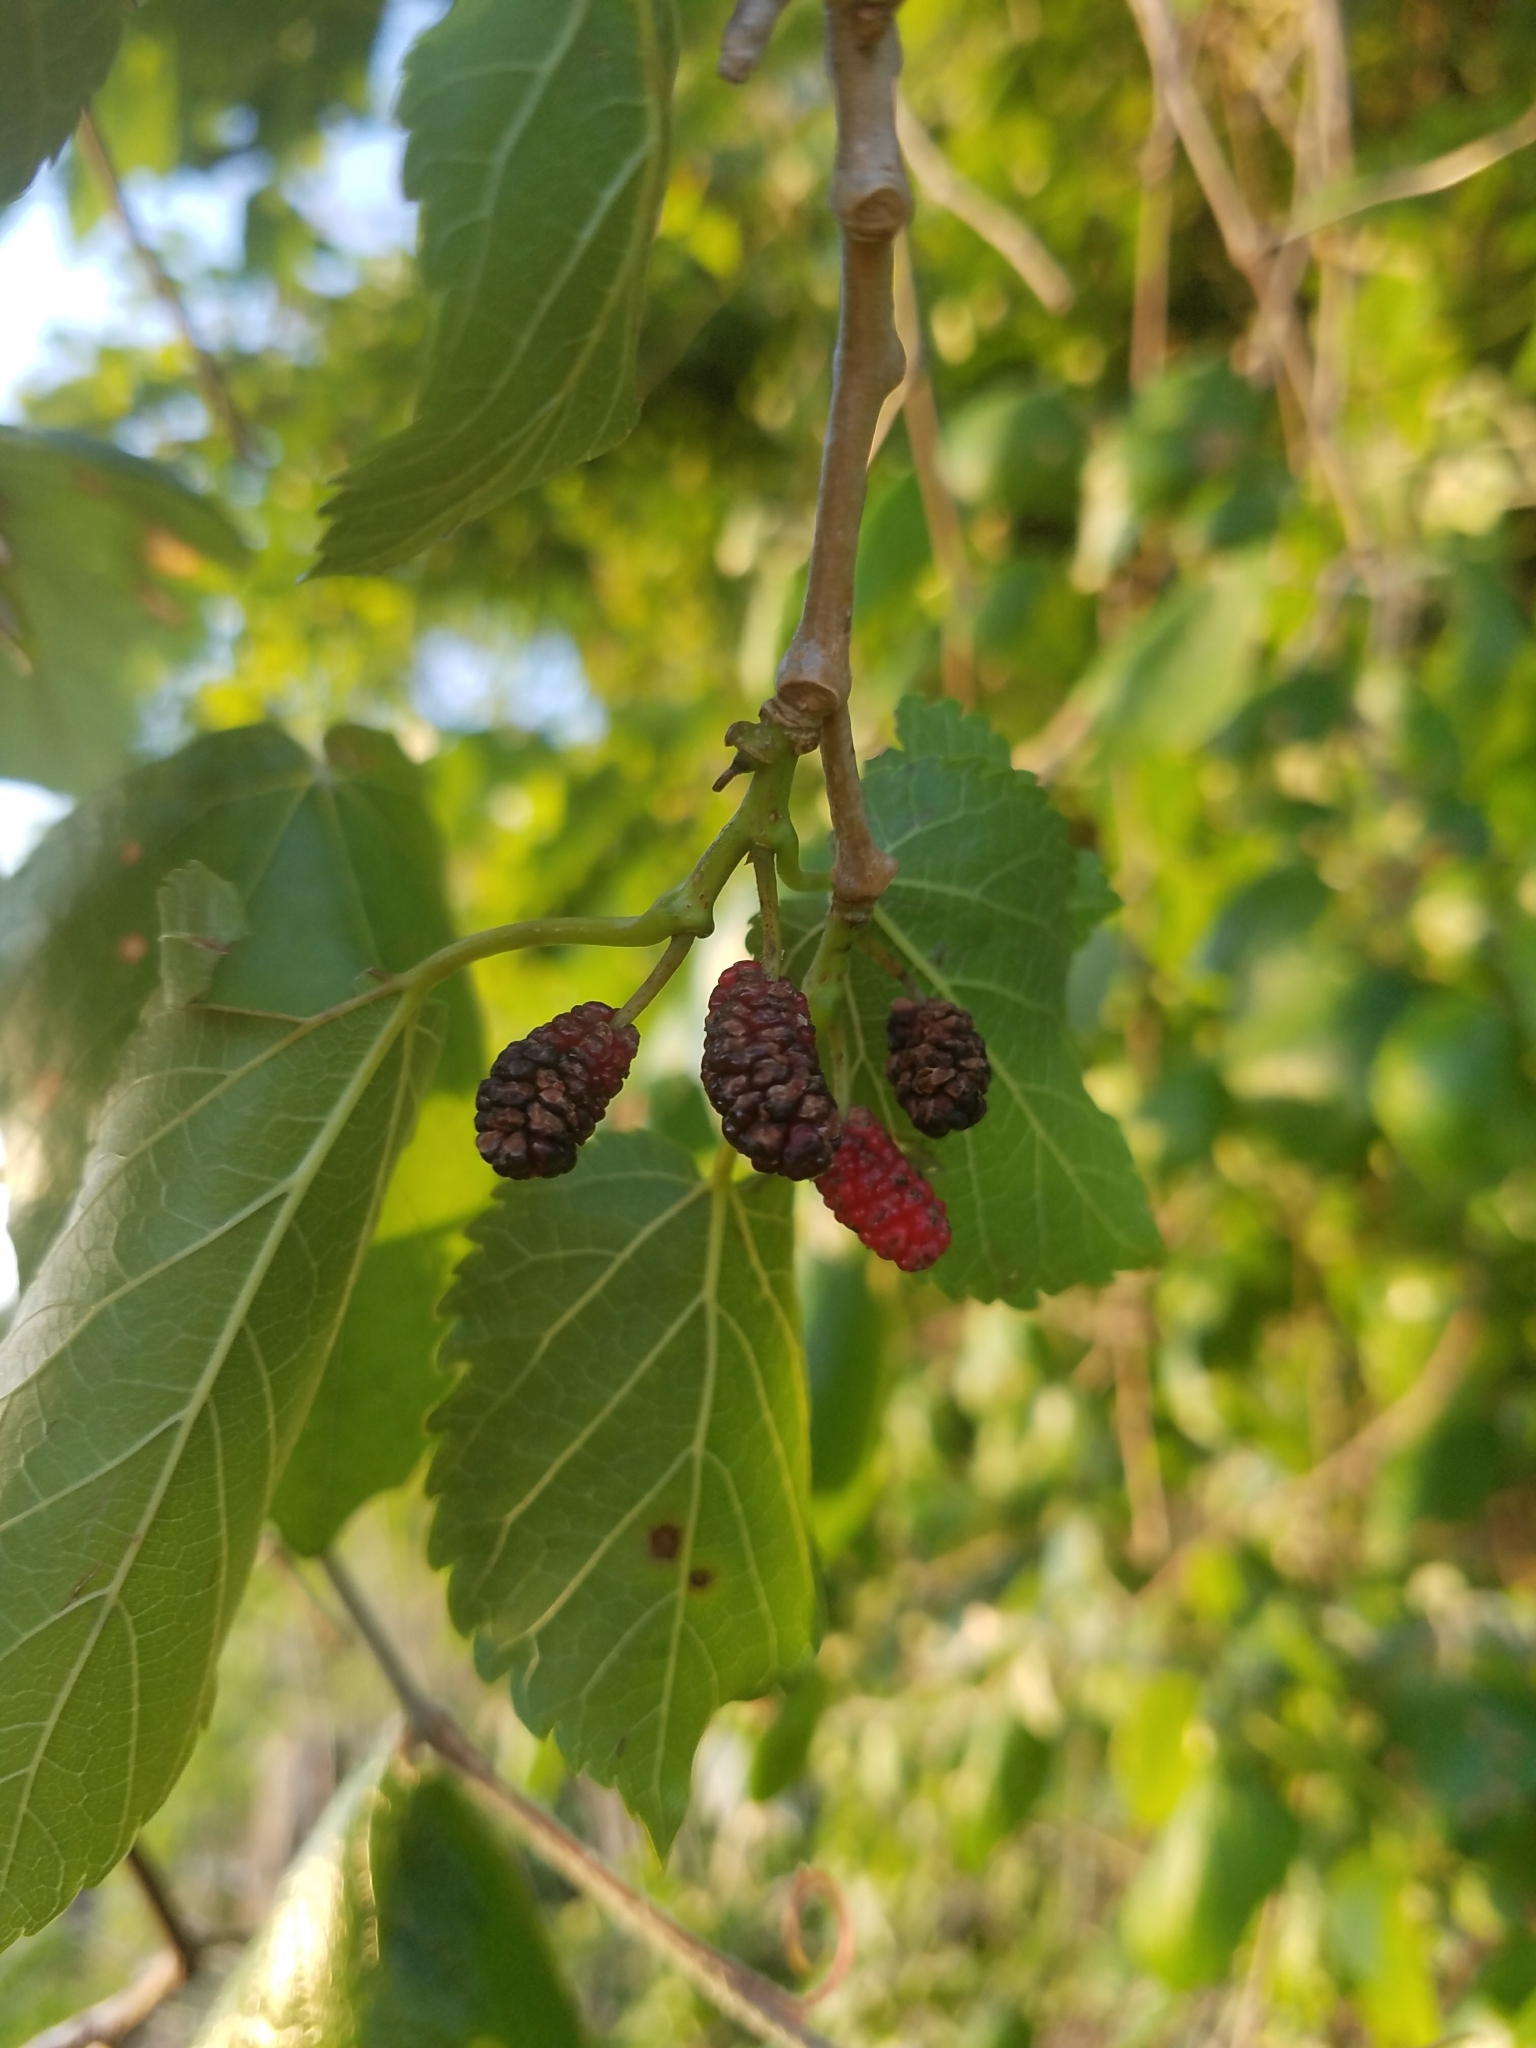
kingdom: Plantae
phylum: Tracheophyta
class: Magnoliopsida
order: Rosales
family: Moraceae
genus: Morus
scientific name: Morus rubra
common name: Red mulberry
